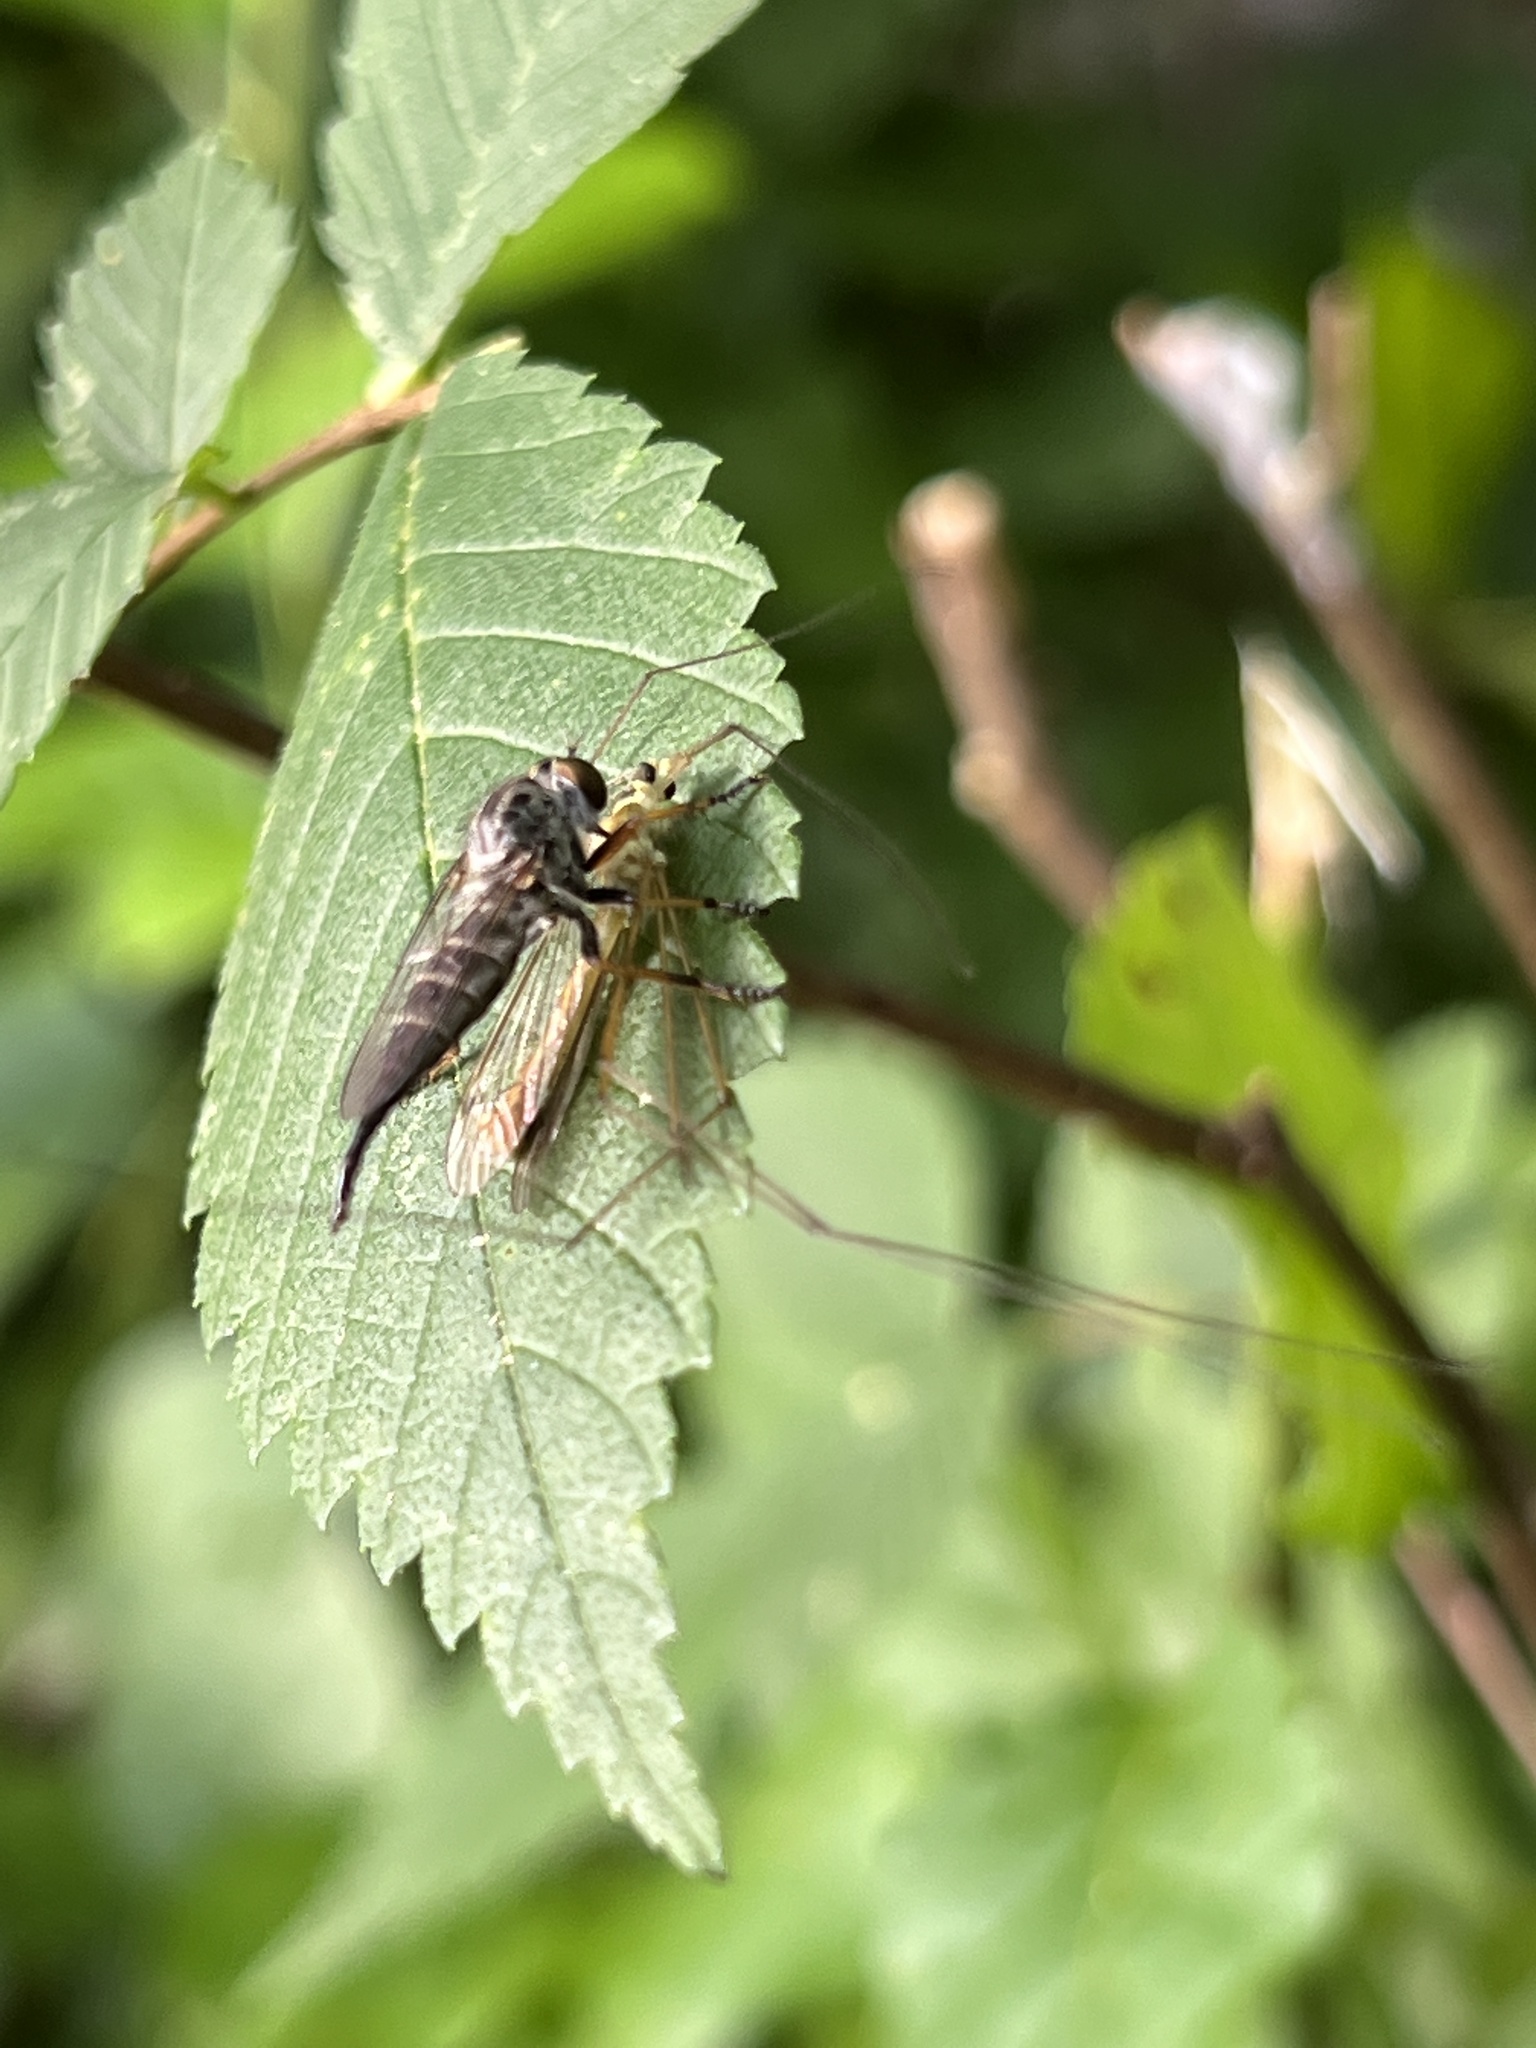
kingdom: Animalia
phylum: Arthropoda
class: Insecta
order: Diptera
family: Asilidae
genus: Asilus
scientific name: Asilus flavofemoratus
